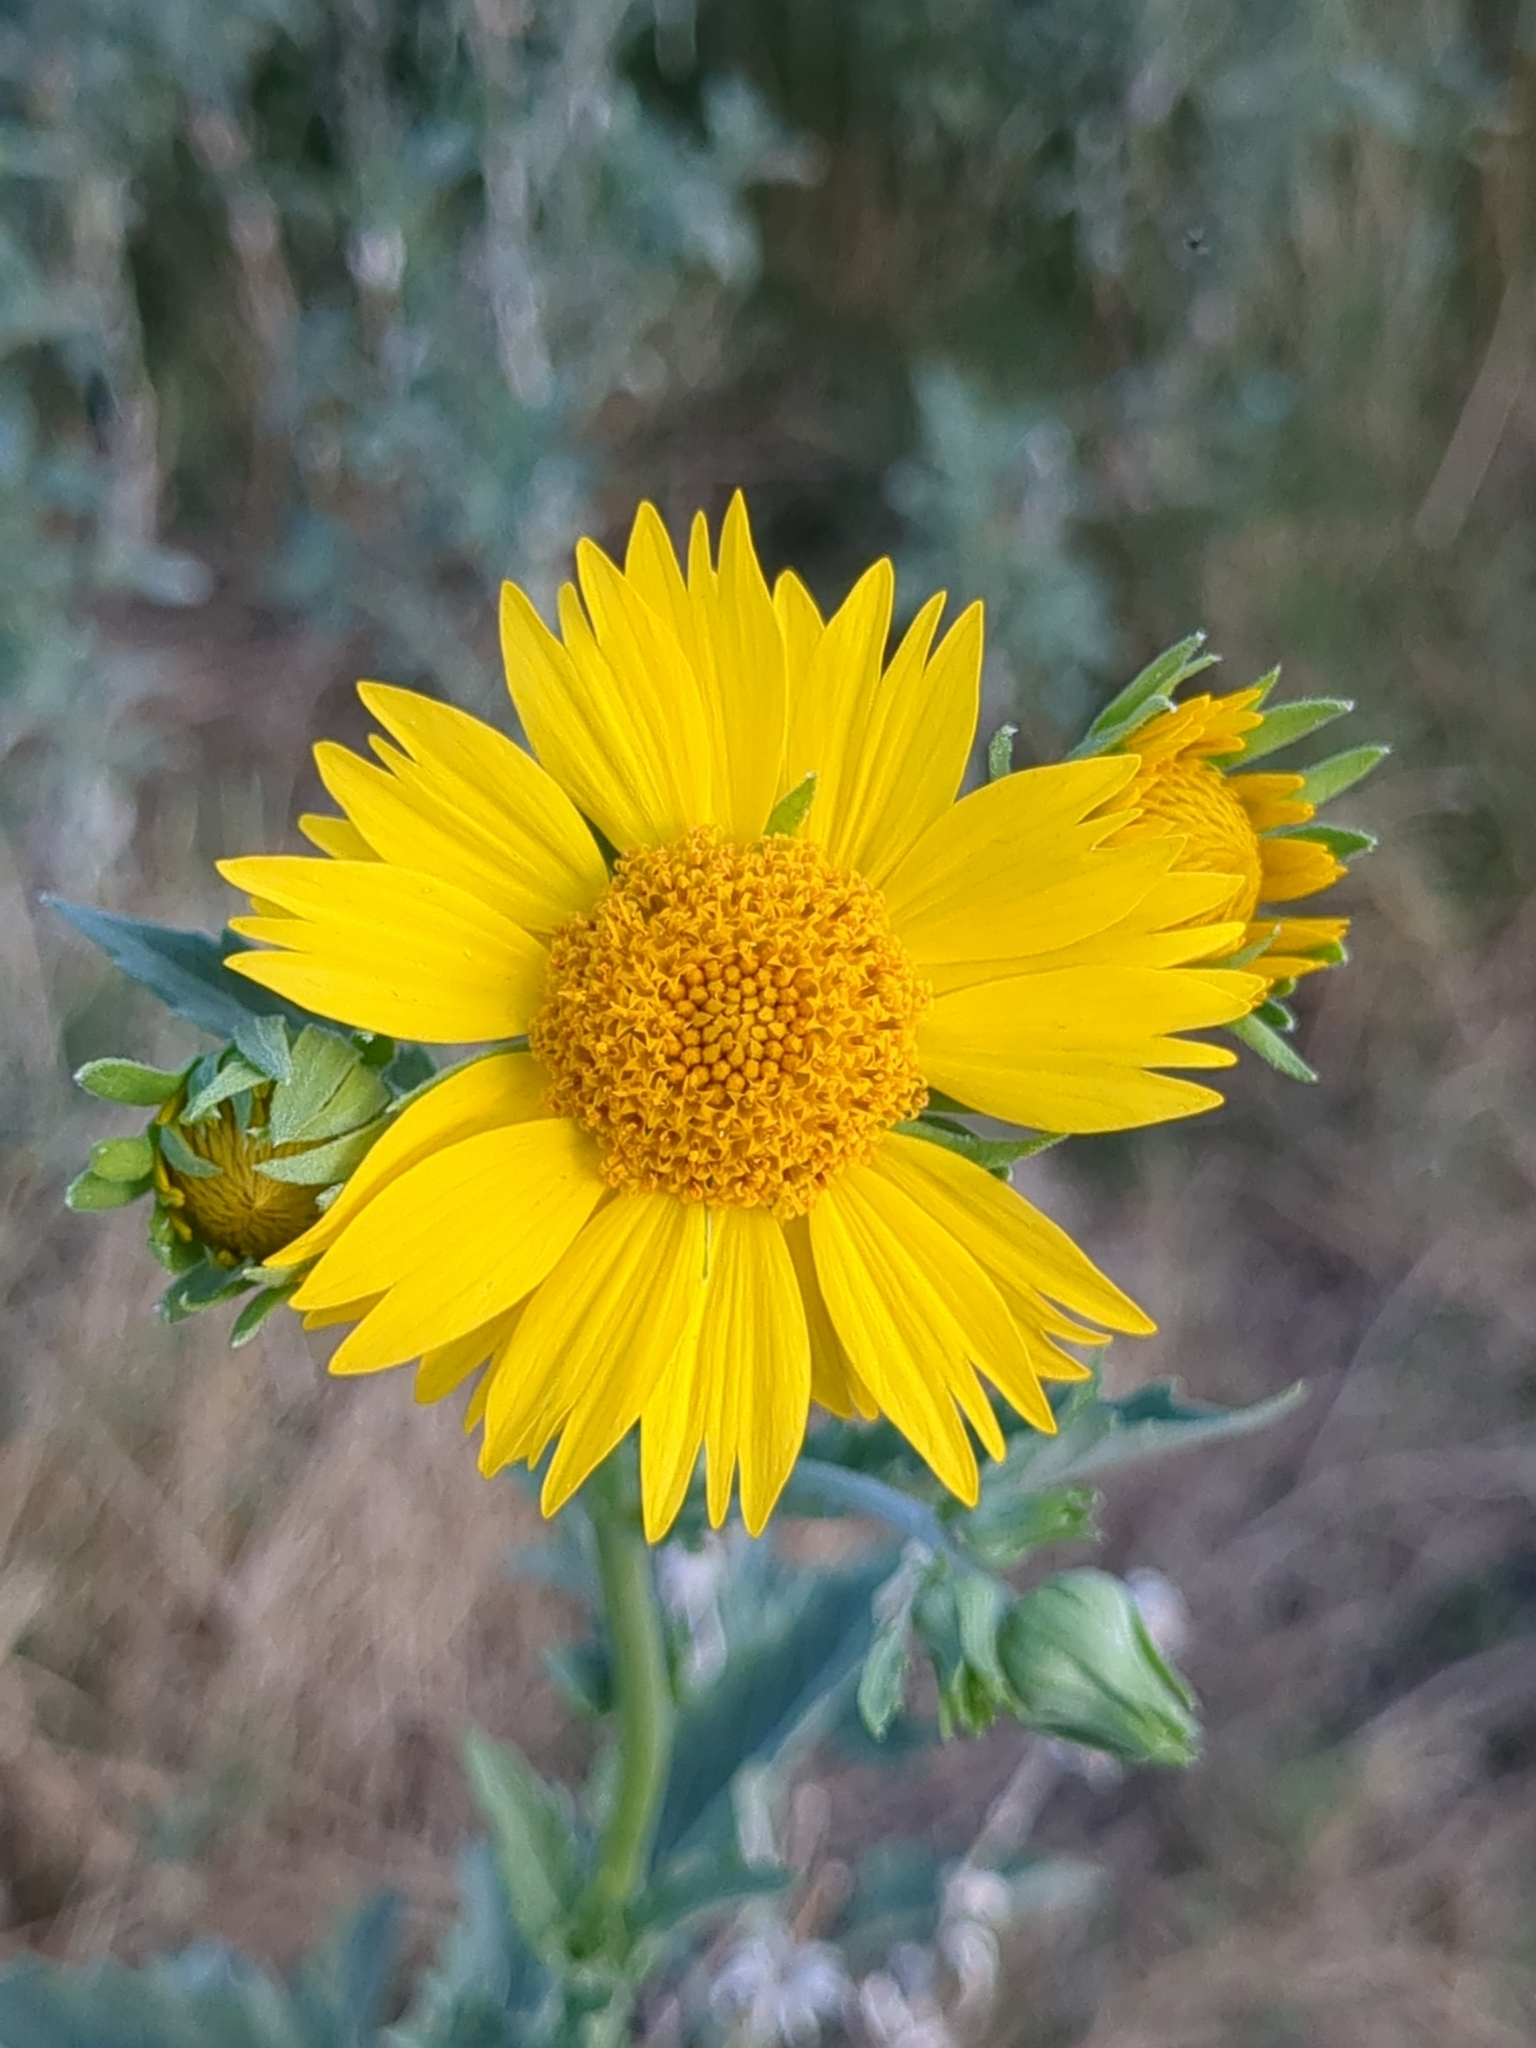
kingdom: Plantae
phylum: Tracheophyta
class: Magnoliopsida
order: Asterales
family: Asteraceae
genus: Verbesina
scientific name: Verbesina encelioides
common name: Golden crownbeard
